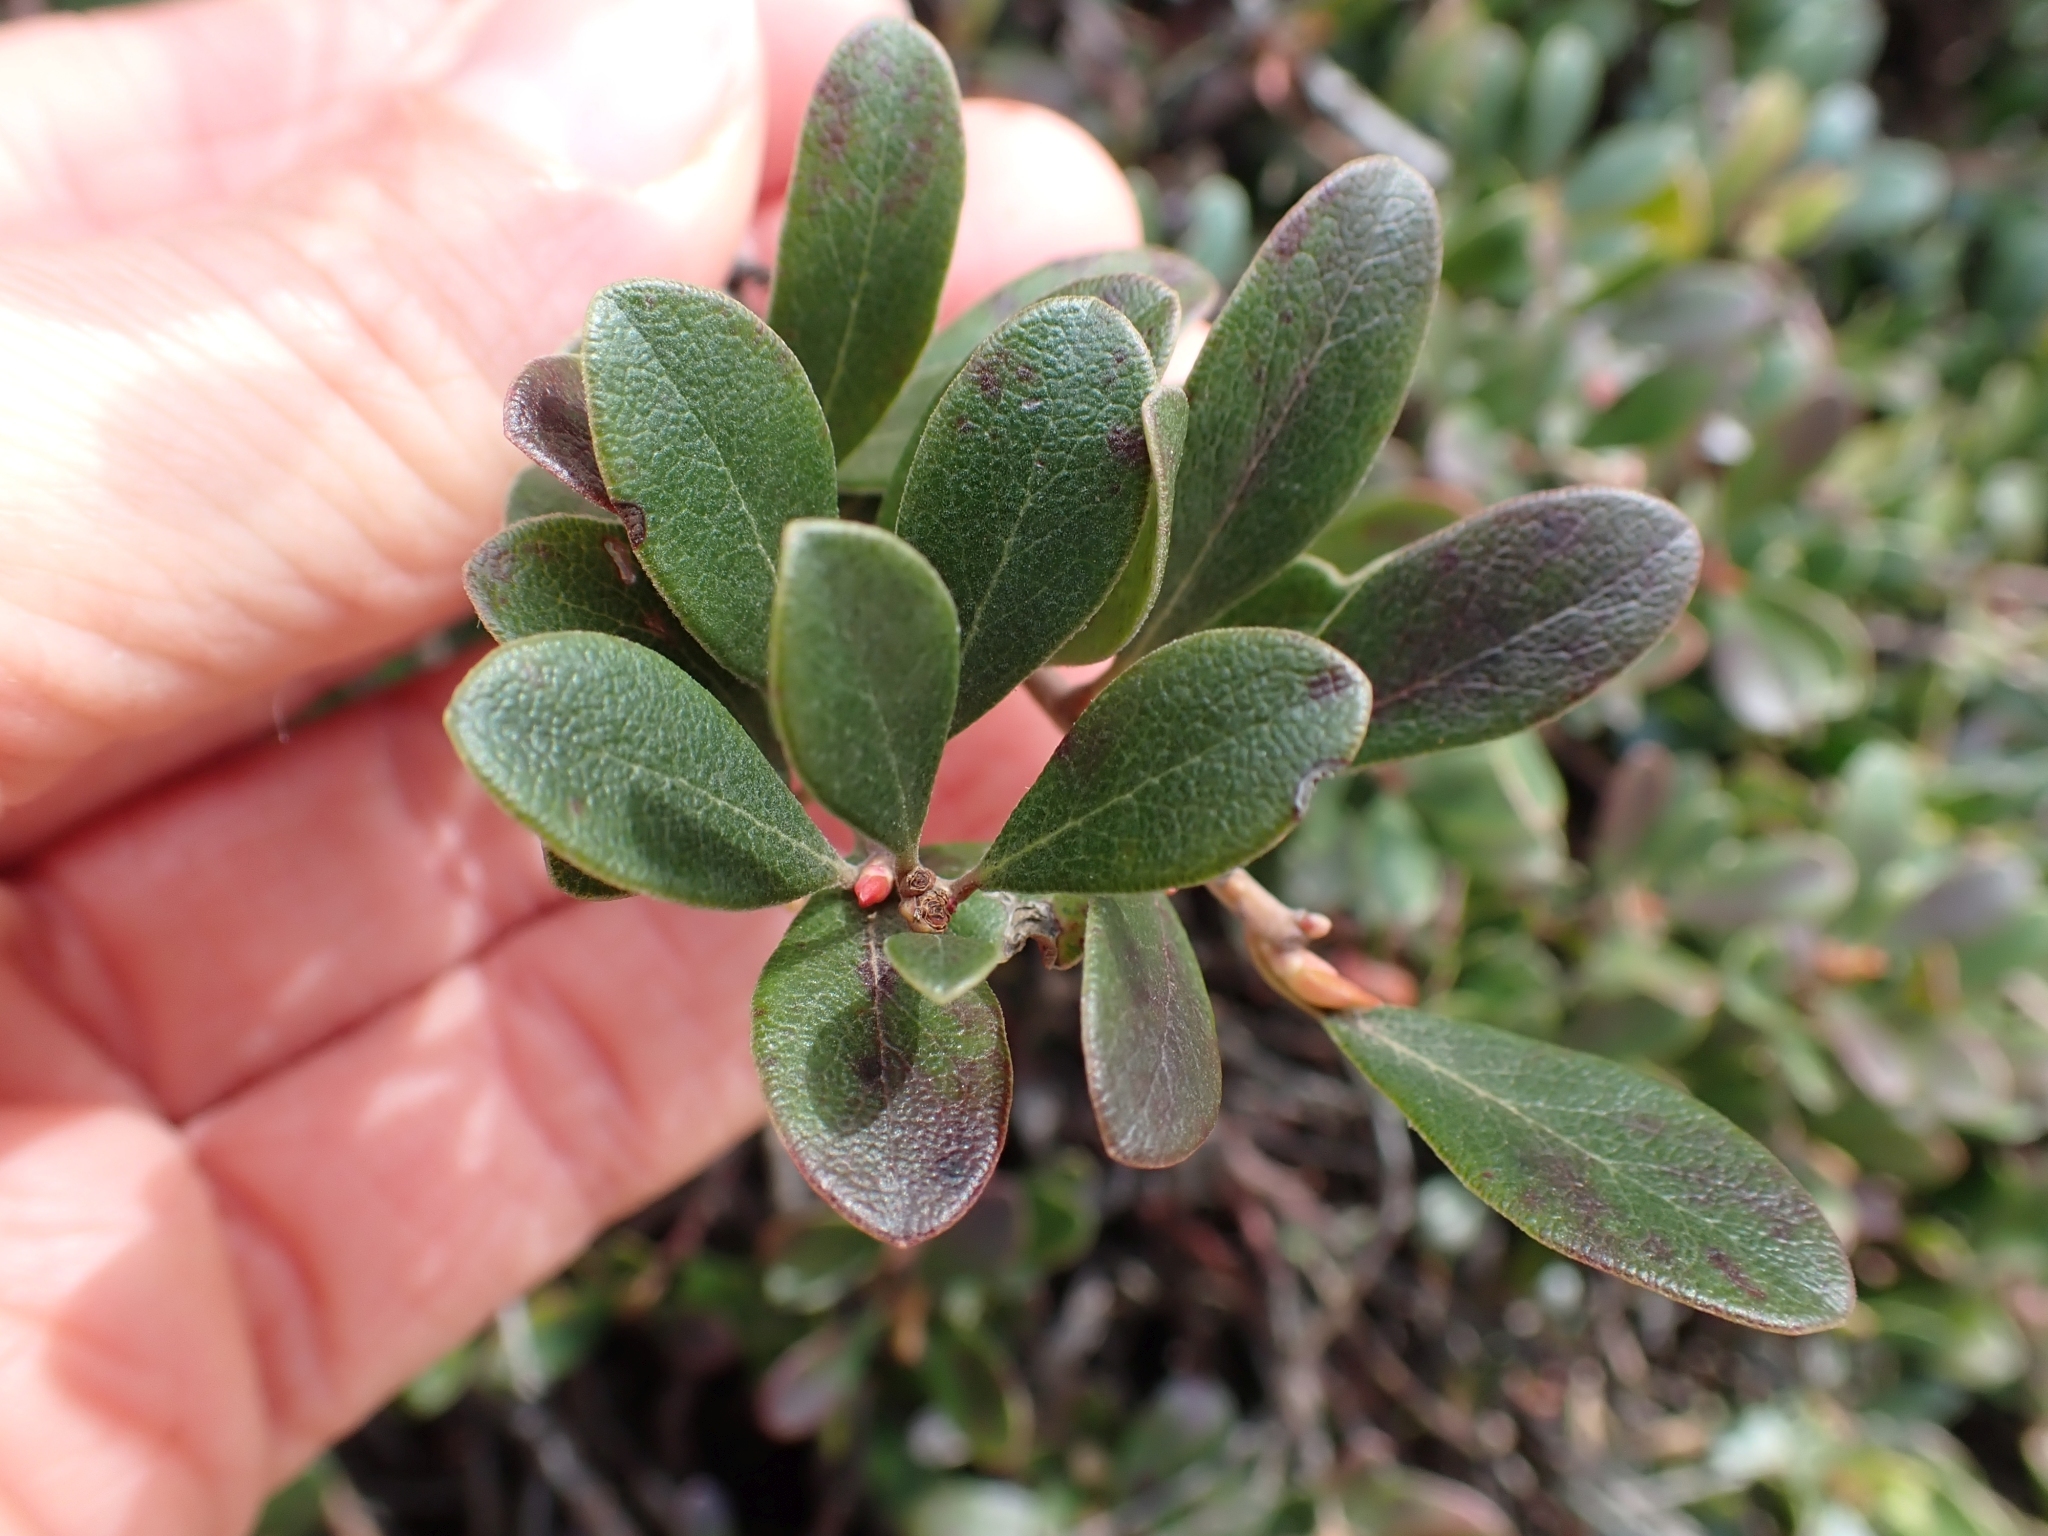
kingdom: Plantae
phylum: Tracheophyta
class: Magnoliopsida
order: Ericales
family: Ericaceae
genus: Arctostaphylos
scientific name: Arctostaphylos uva-ursi
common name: Bearberry
